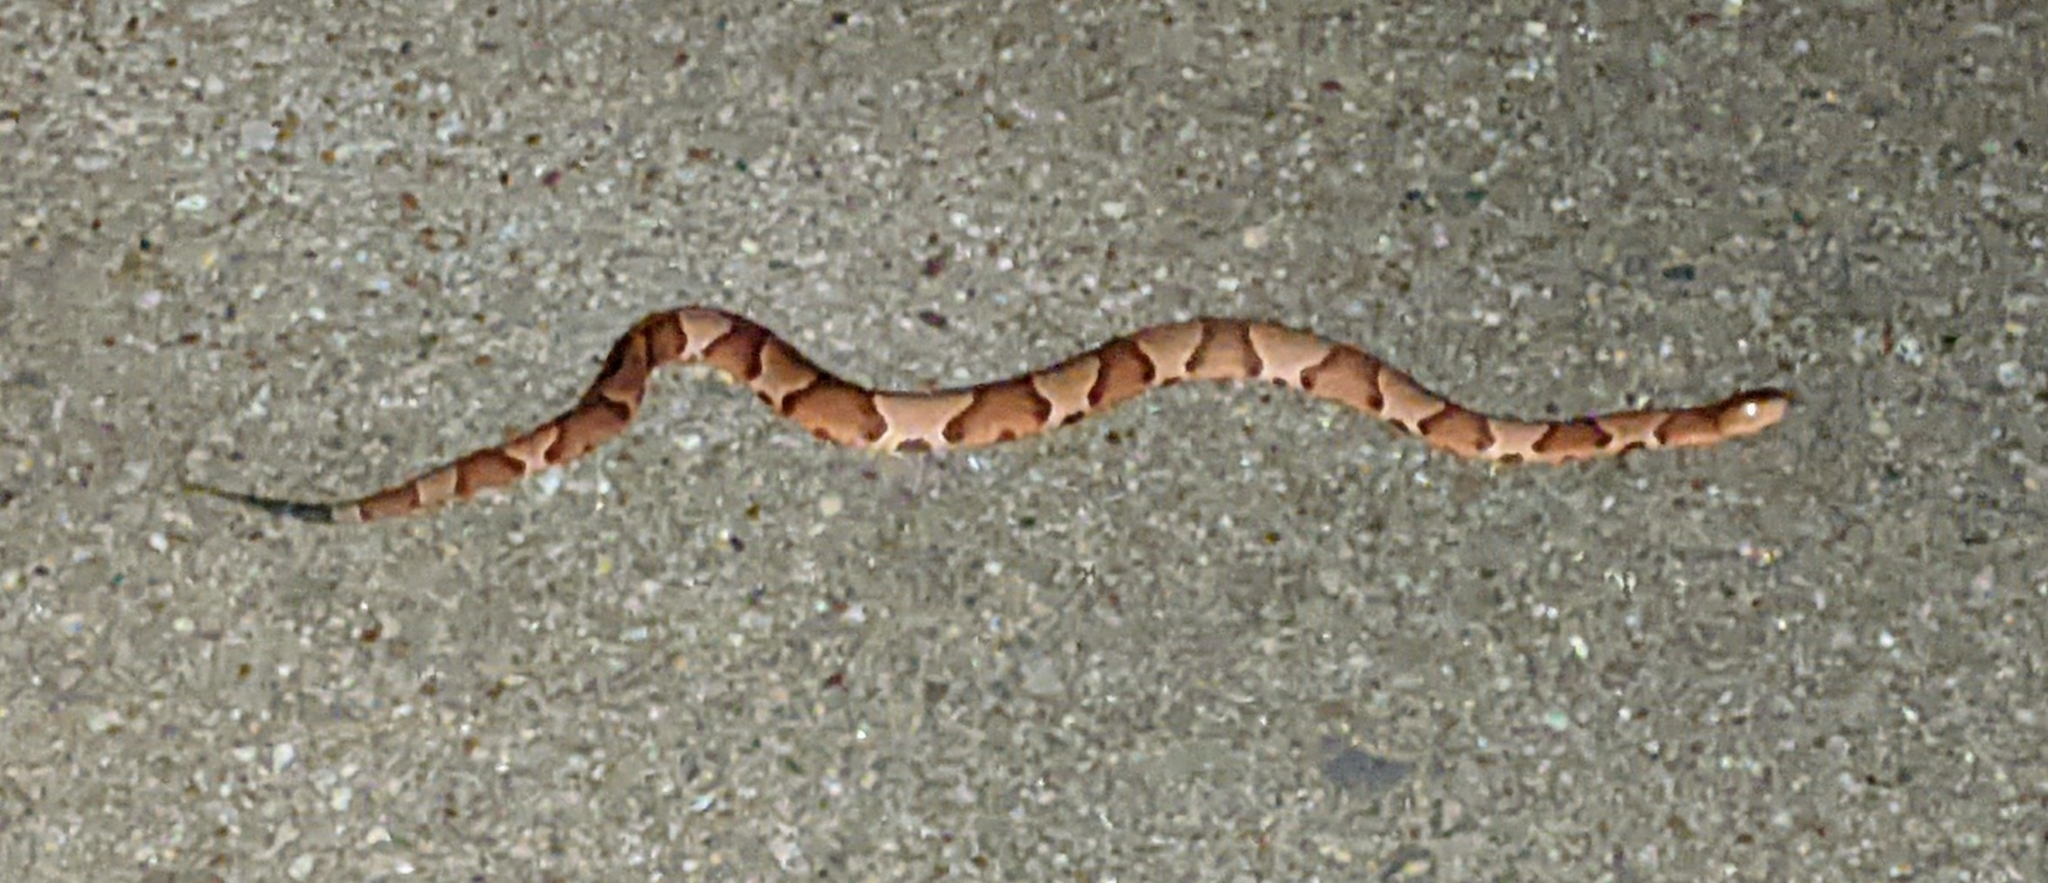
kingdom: Animalia
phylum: Chordata
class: Squamata
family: Viperidae
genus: Agkistrodon
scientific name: Agkistrodon contortrix
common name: Northern copperhead
